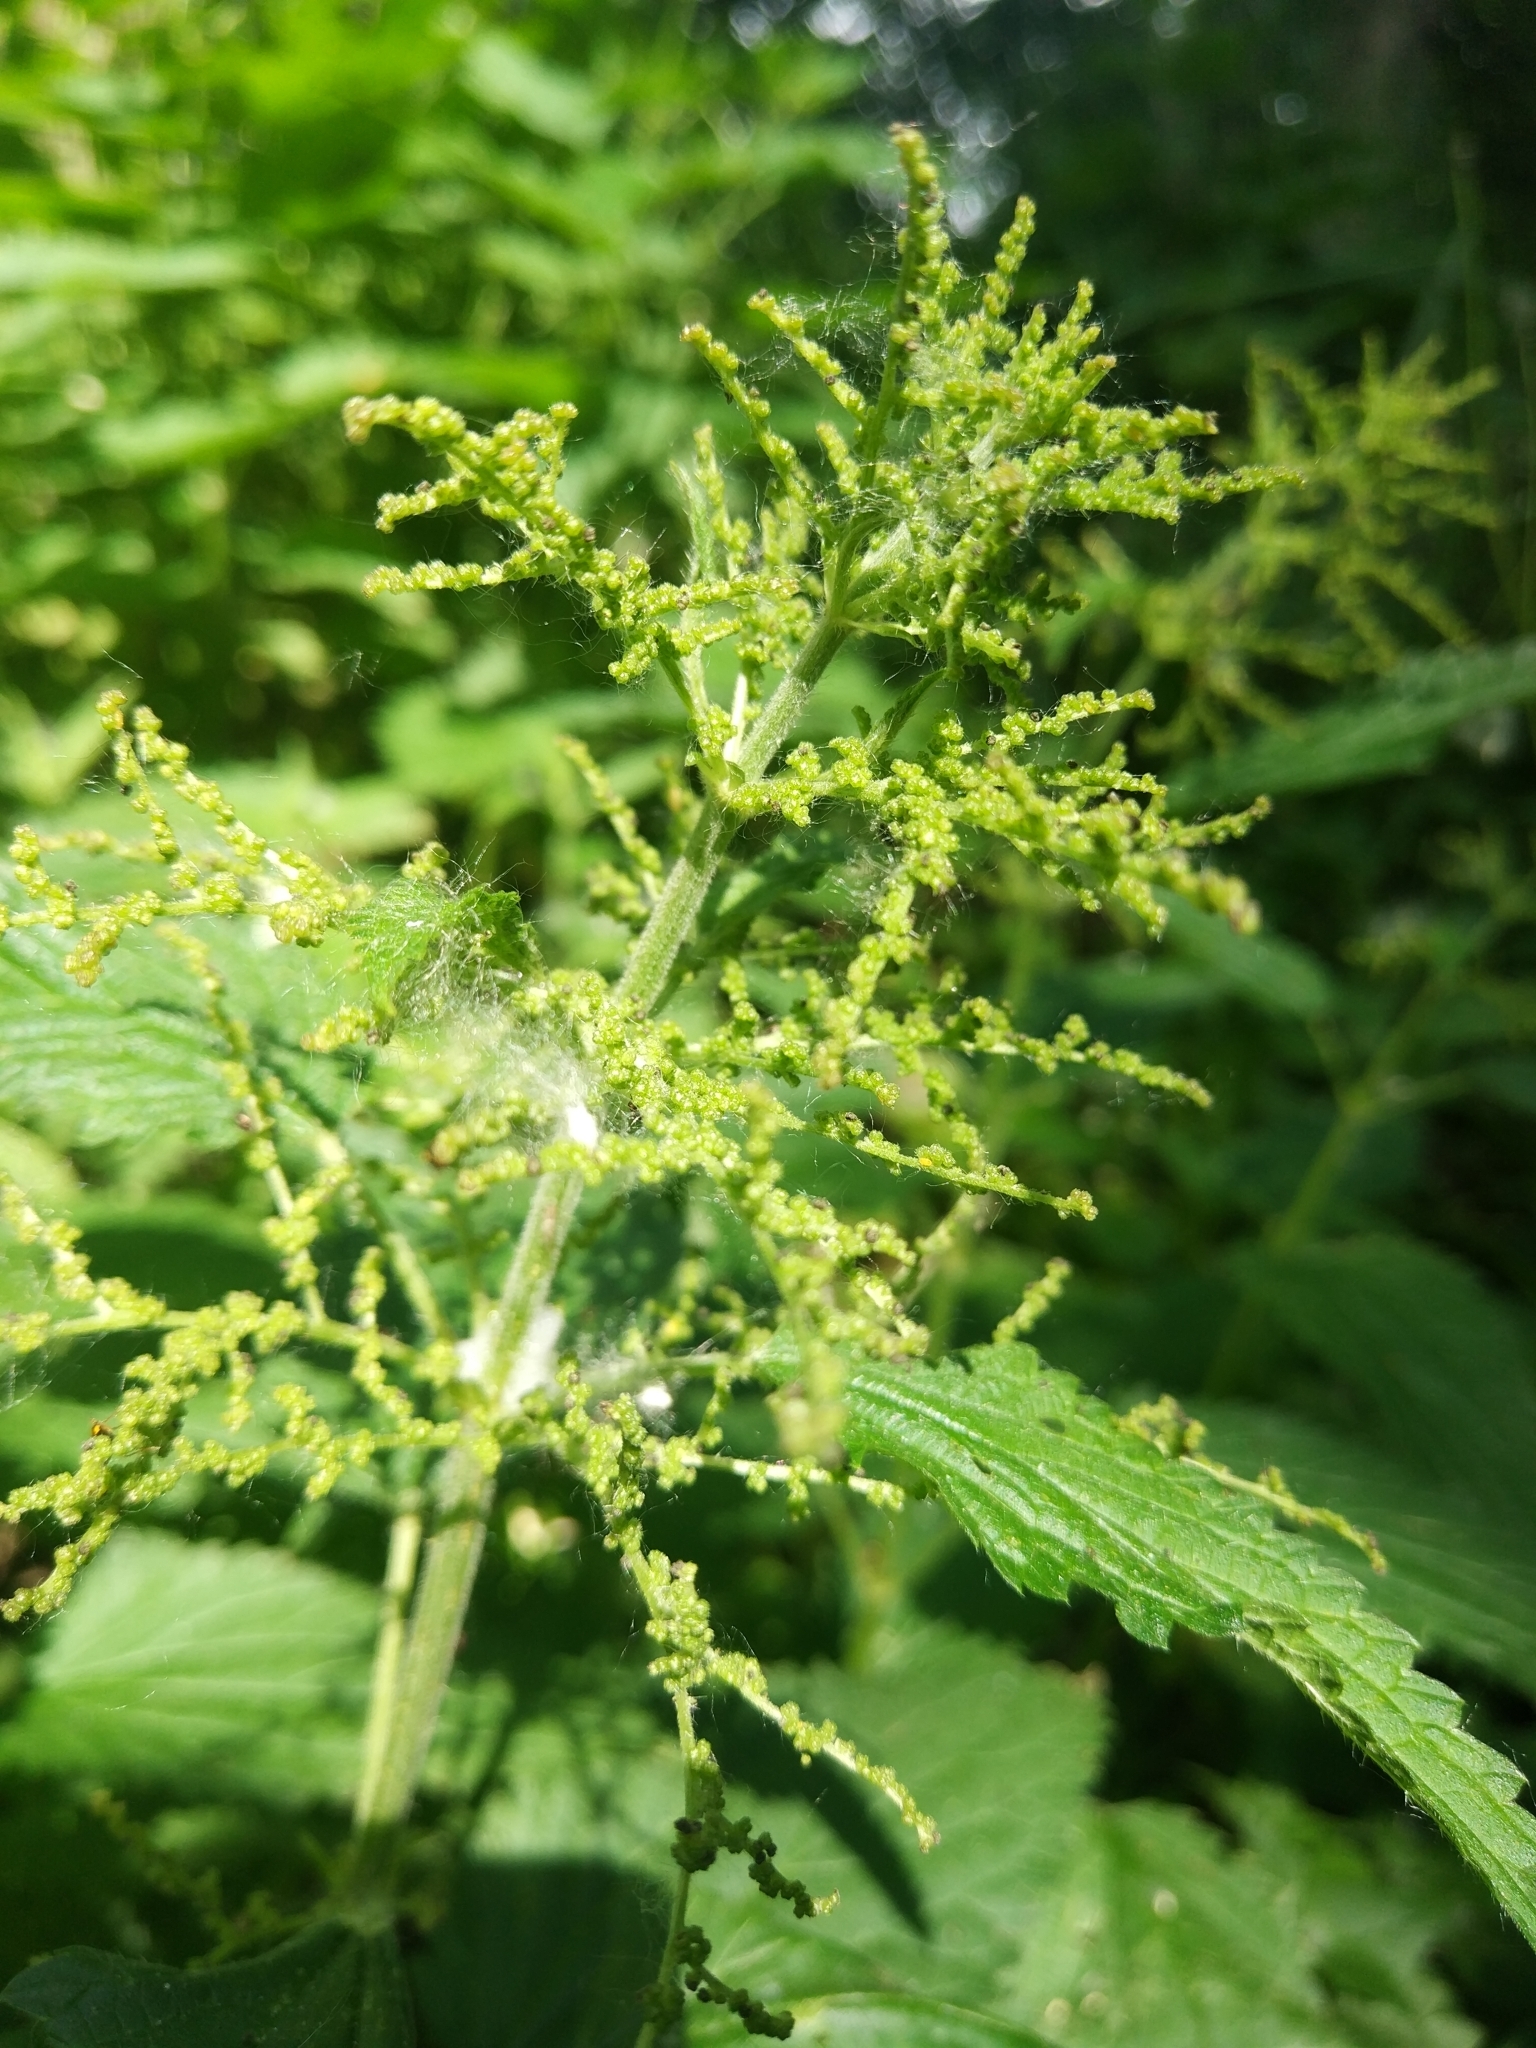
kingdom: Plantae
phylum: Tracheophyta
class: Magnoliopsida
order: Rosales
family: Urticaceae
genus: Urtica
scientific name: Urtica dioica
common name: Common nettle
